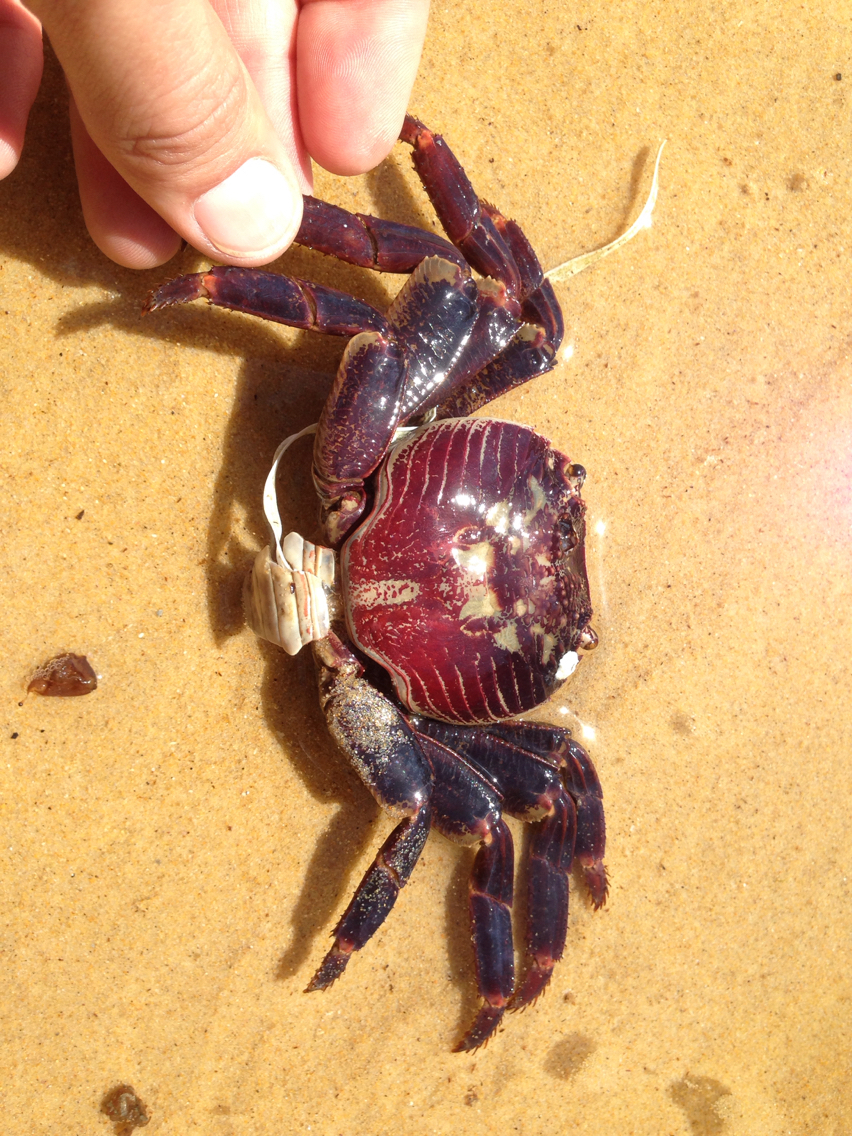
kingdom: Animalia
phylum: Arthropoda
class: Malacostraca
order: Decapoda
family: Grapsidae
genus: Leptograpsus
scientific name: Leptograpsus variegatus
